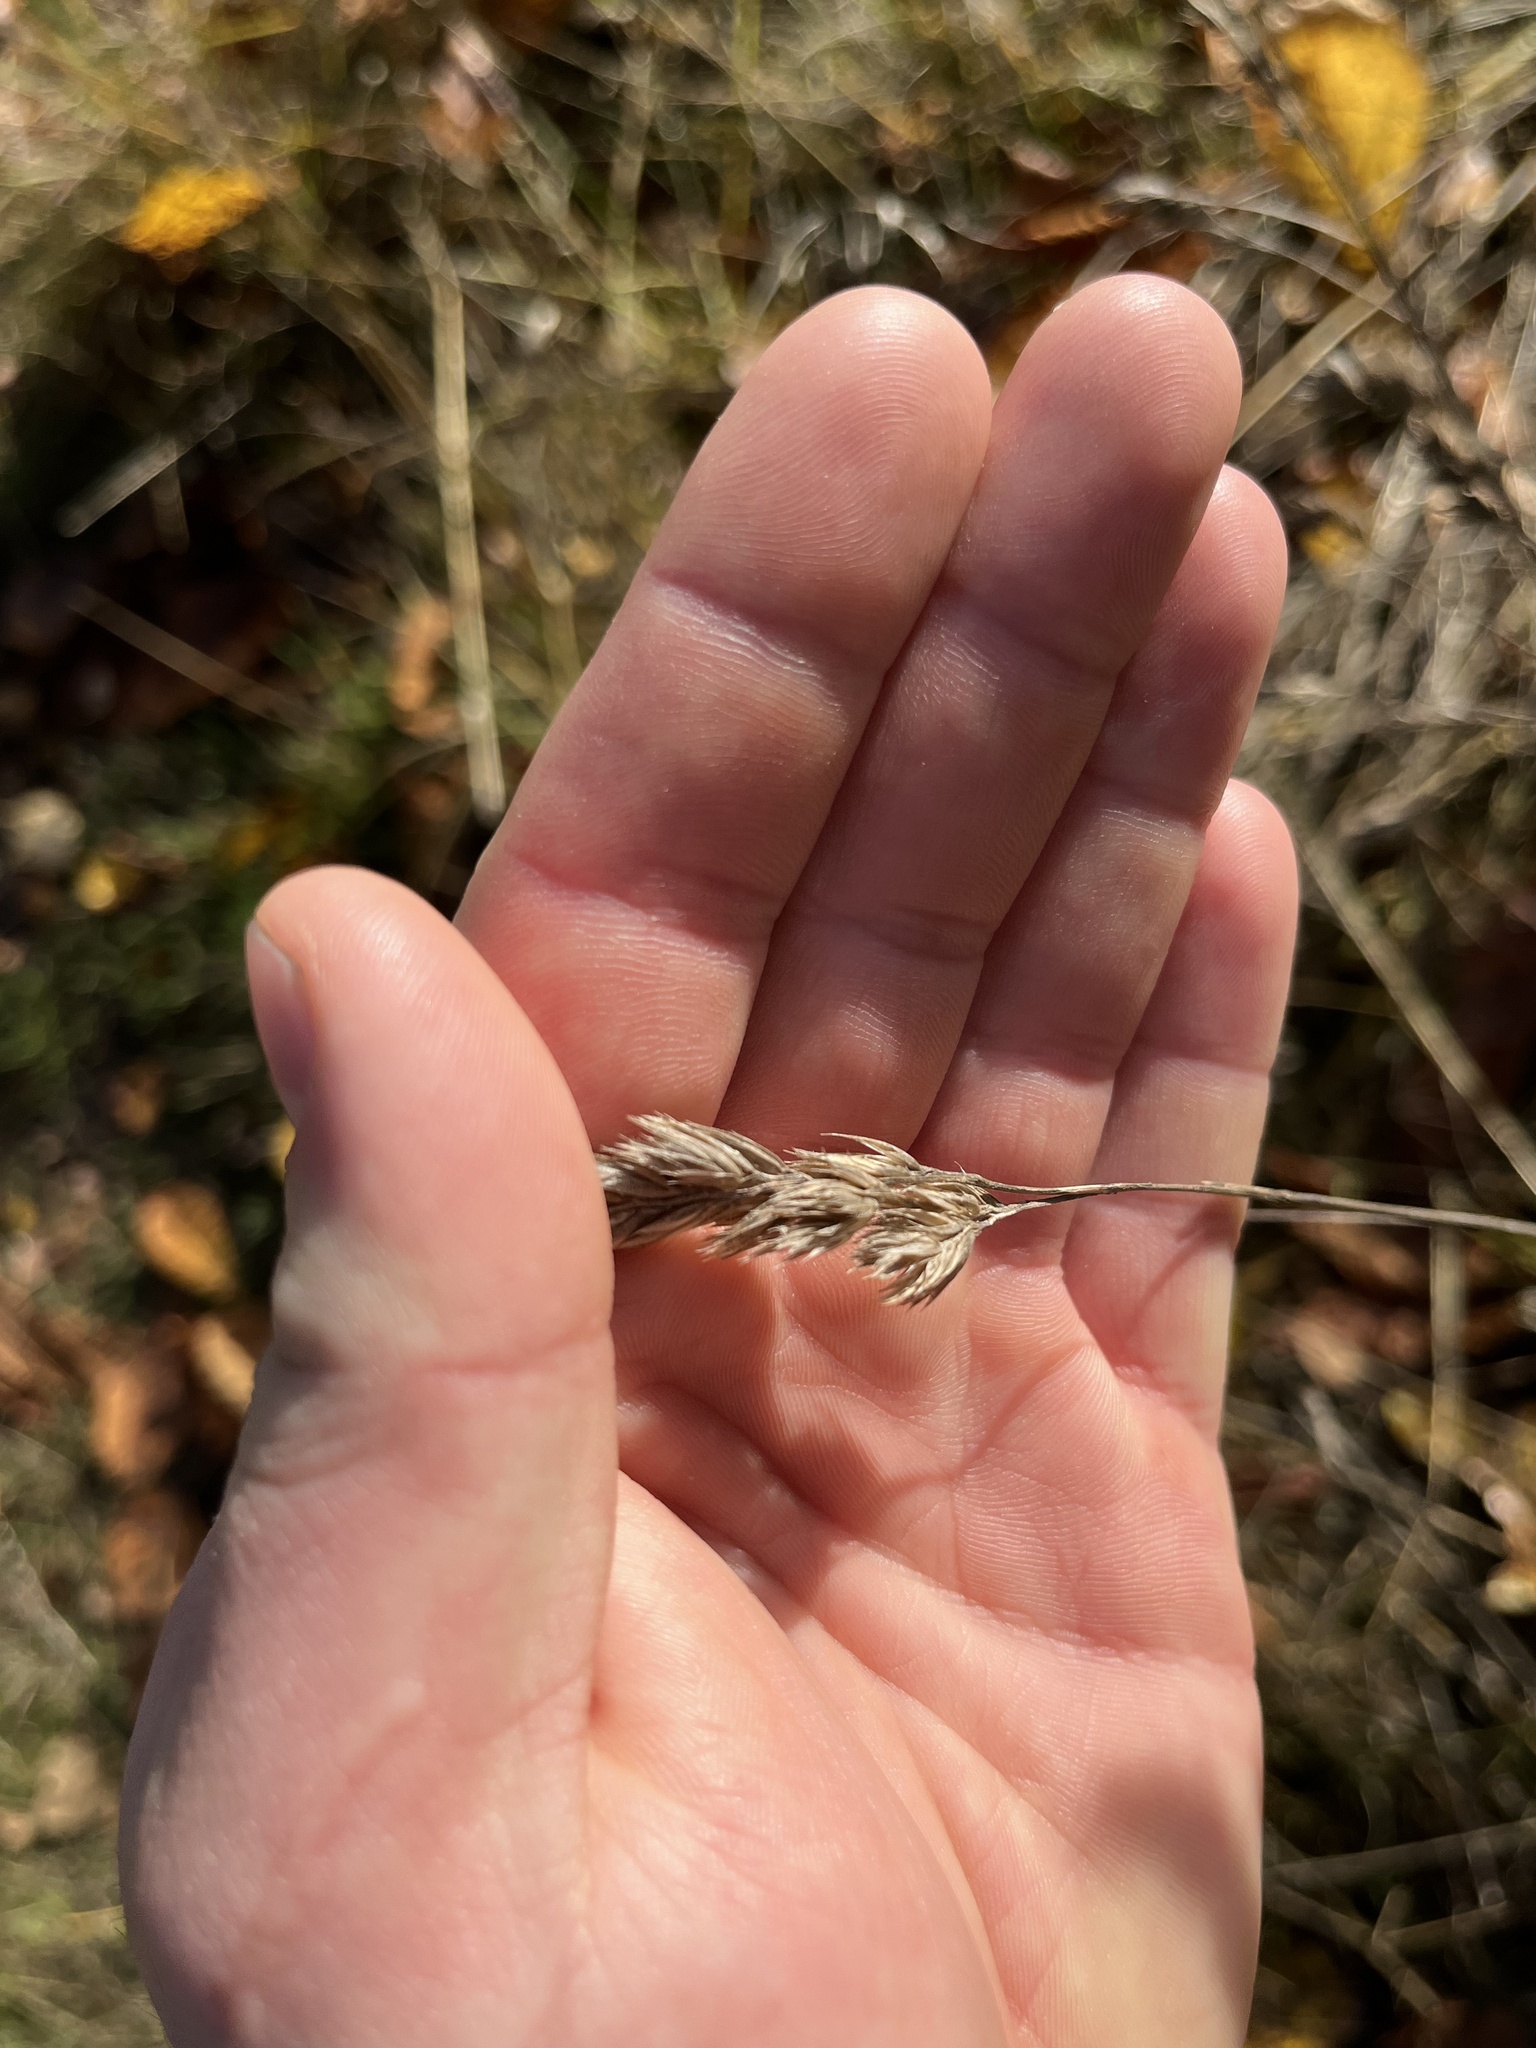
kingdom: Plantae
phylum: Tracheophyta
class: Liliopsida
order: Poales
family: Poaceae
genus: Dactylis
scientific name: Dactylis glomerata
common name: Orchardgrass
